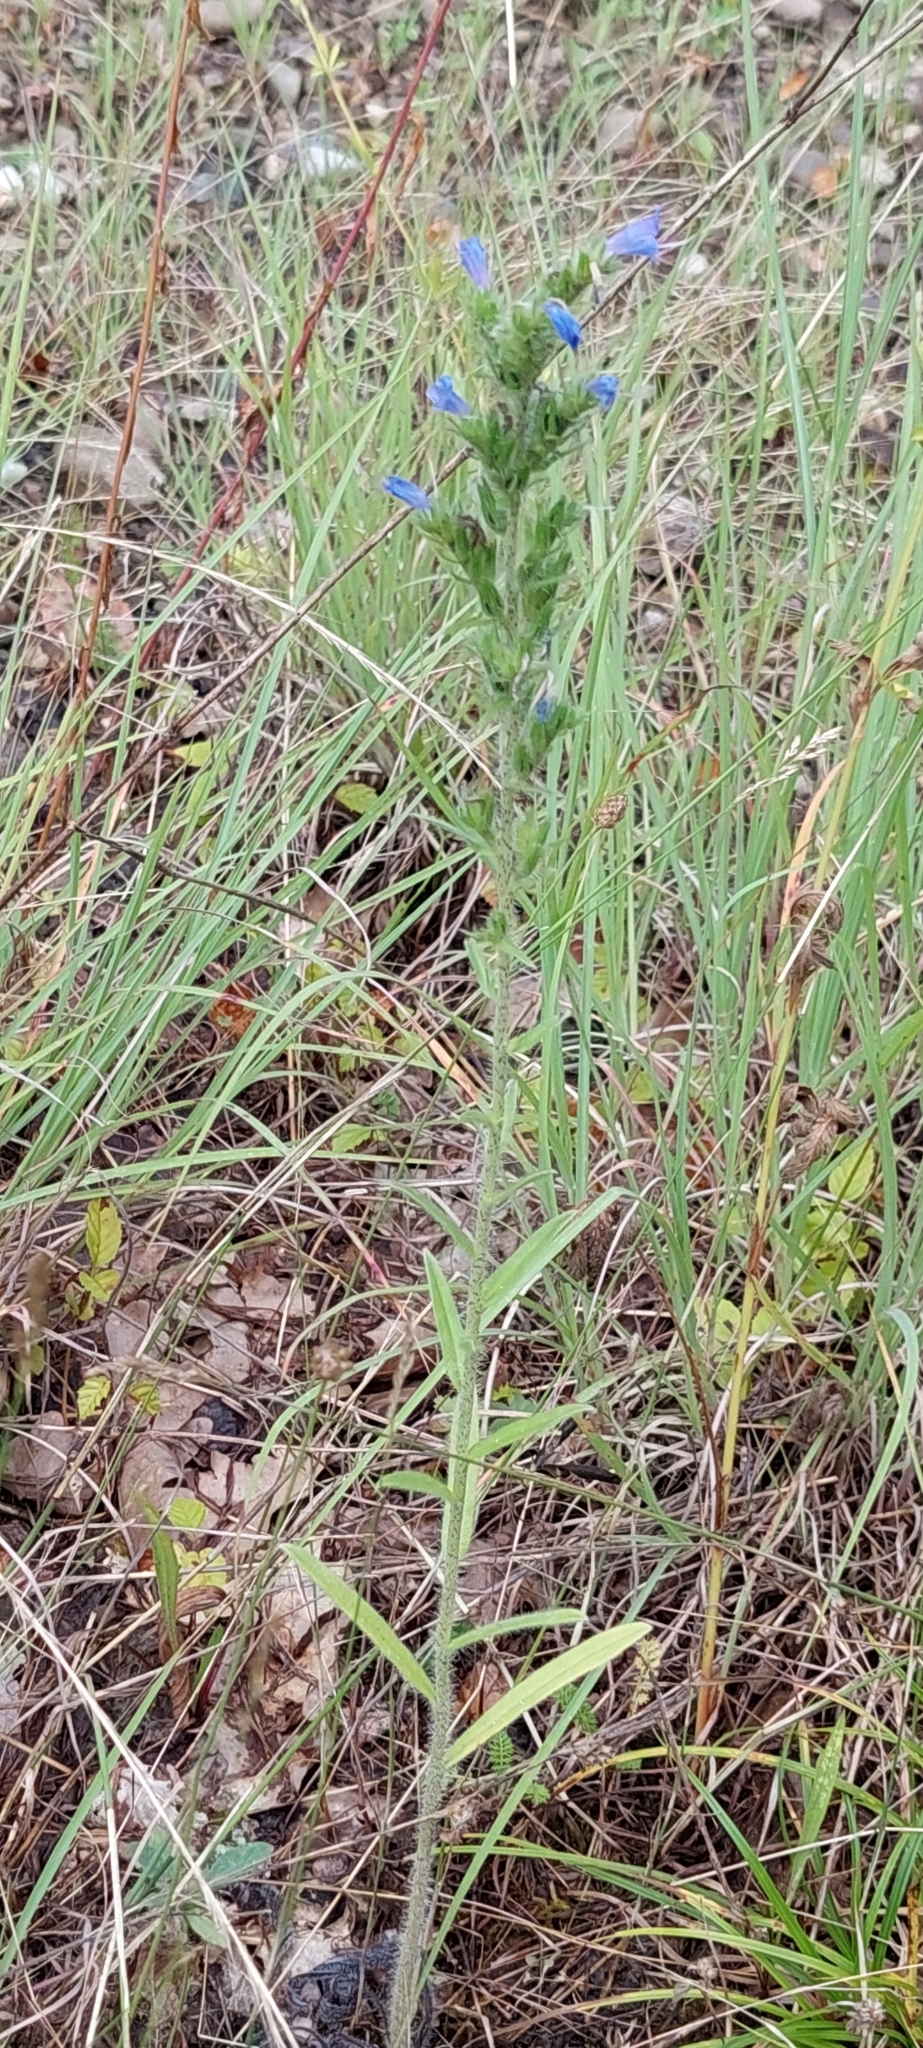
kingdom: Plantae
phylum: Tracheophyta
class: Magnoliopsida
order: Boraginales
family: Boraginaceae
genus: Echium
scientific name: Echium vulgare
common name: Common viper's bugloss
